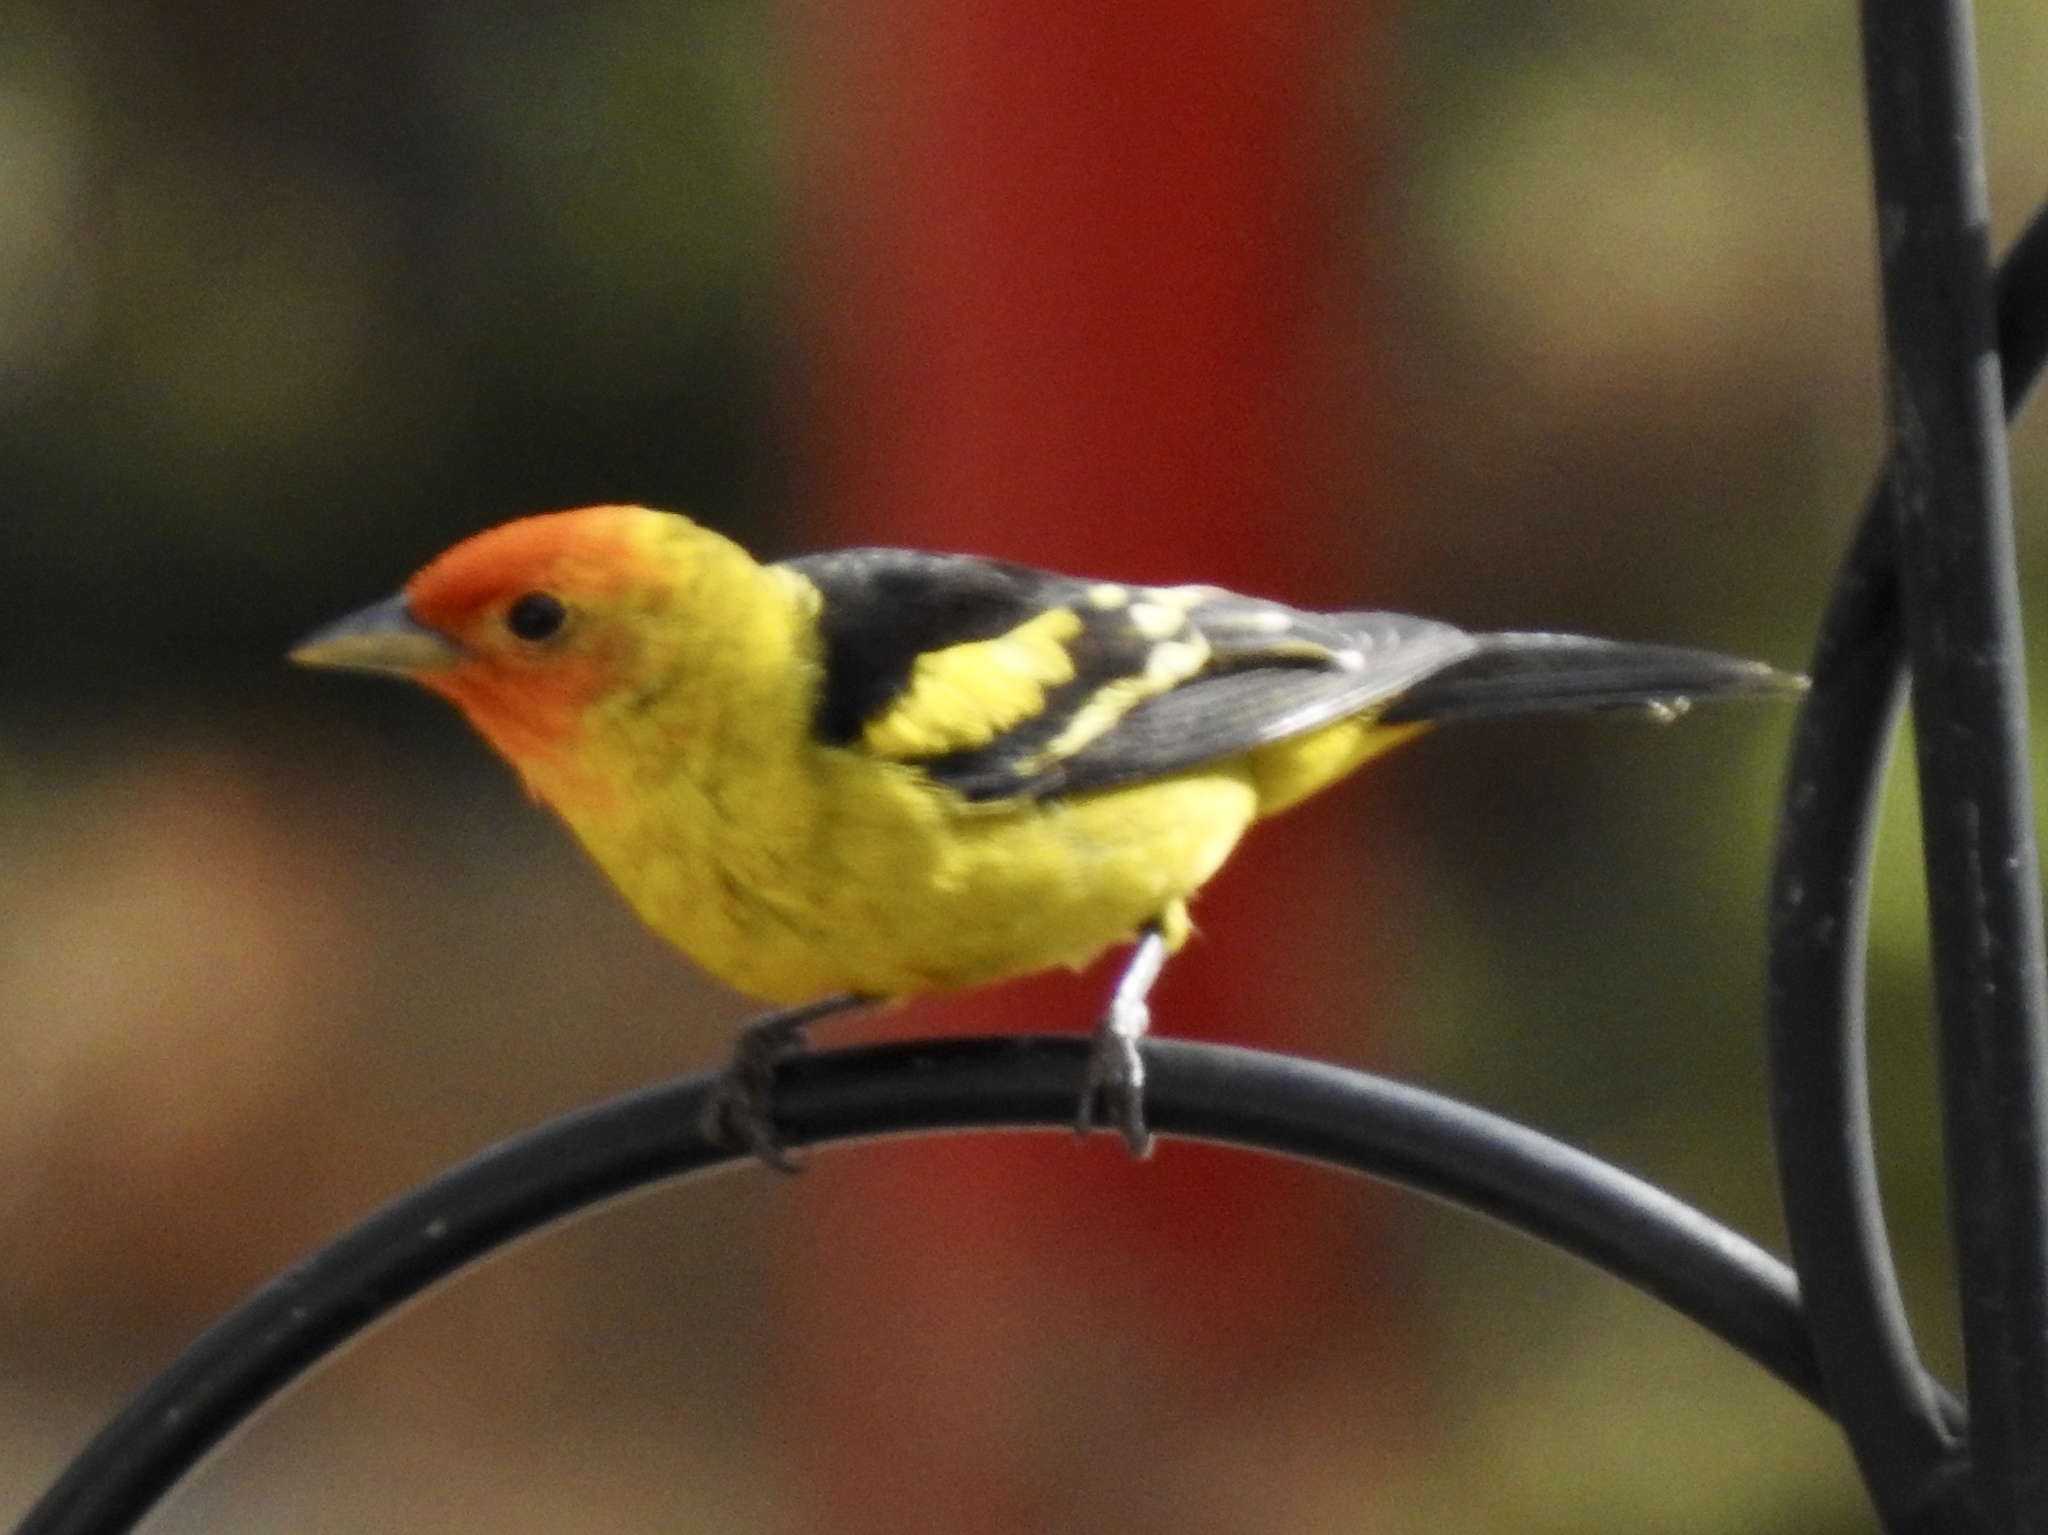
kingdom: Animalia
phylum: Chordata
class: Aves
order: Passeriformes
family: Cardinalidae
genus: Piranga
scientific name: Piranga ludoviciana
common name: Western tanager
